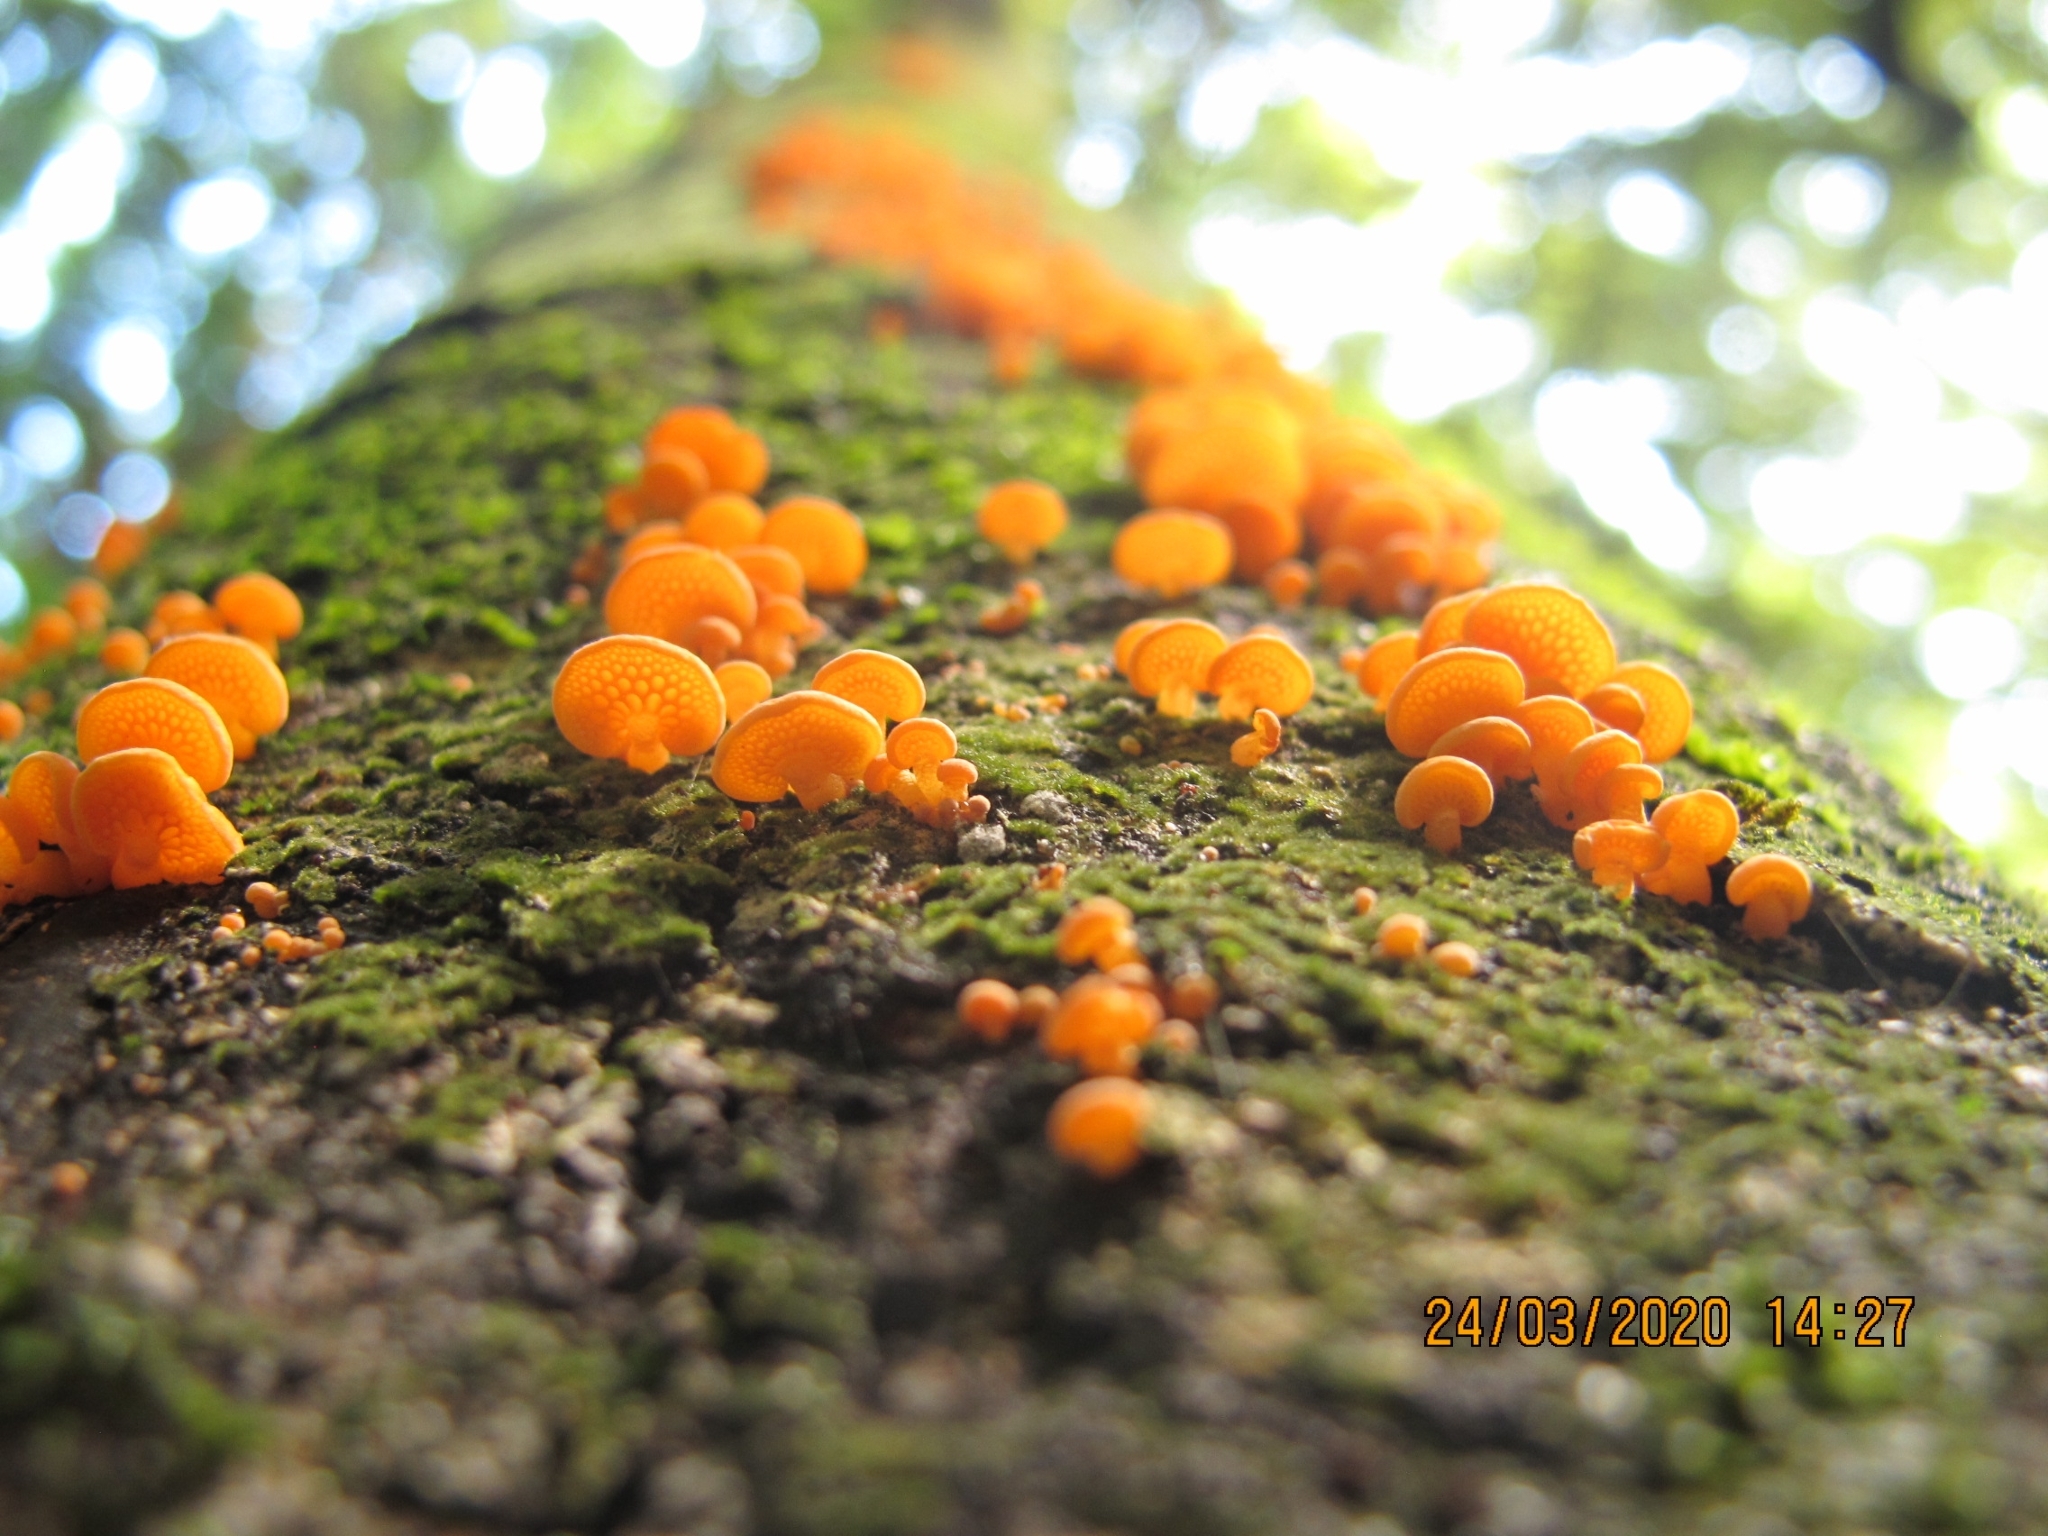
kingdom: Fungi
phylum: Basidiomycota
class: Agaricomycetes
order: Agaricales
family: Mycenaceae
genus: Favolaschia
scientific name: Favolaschia claudopus
